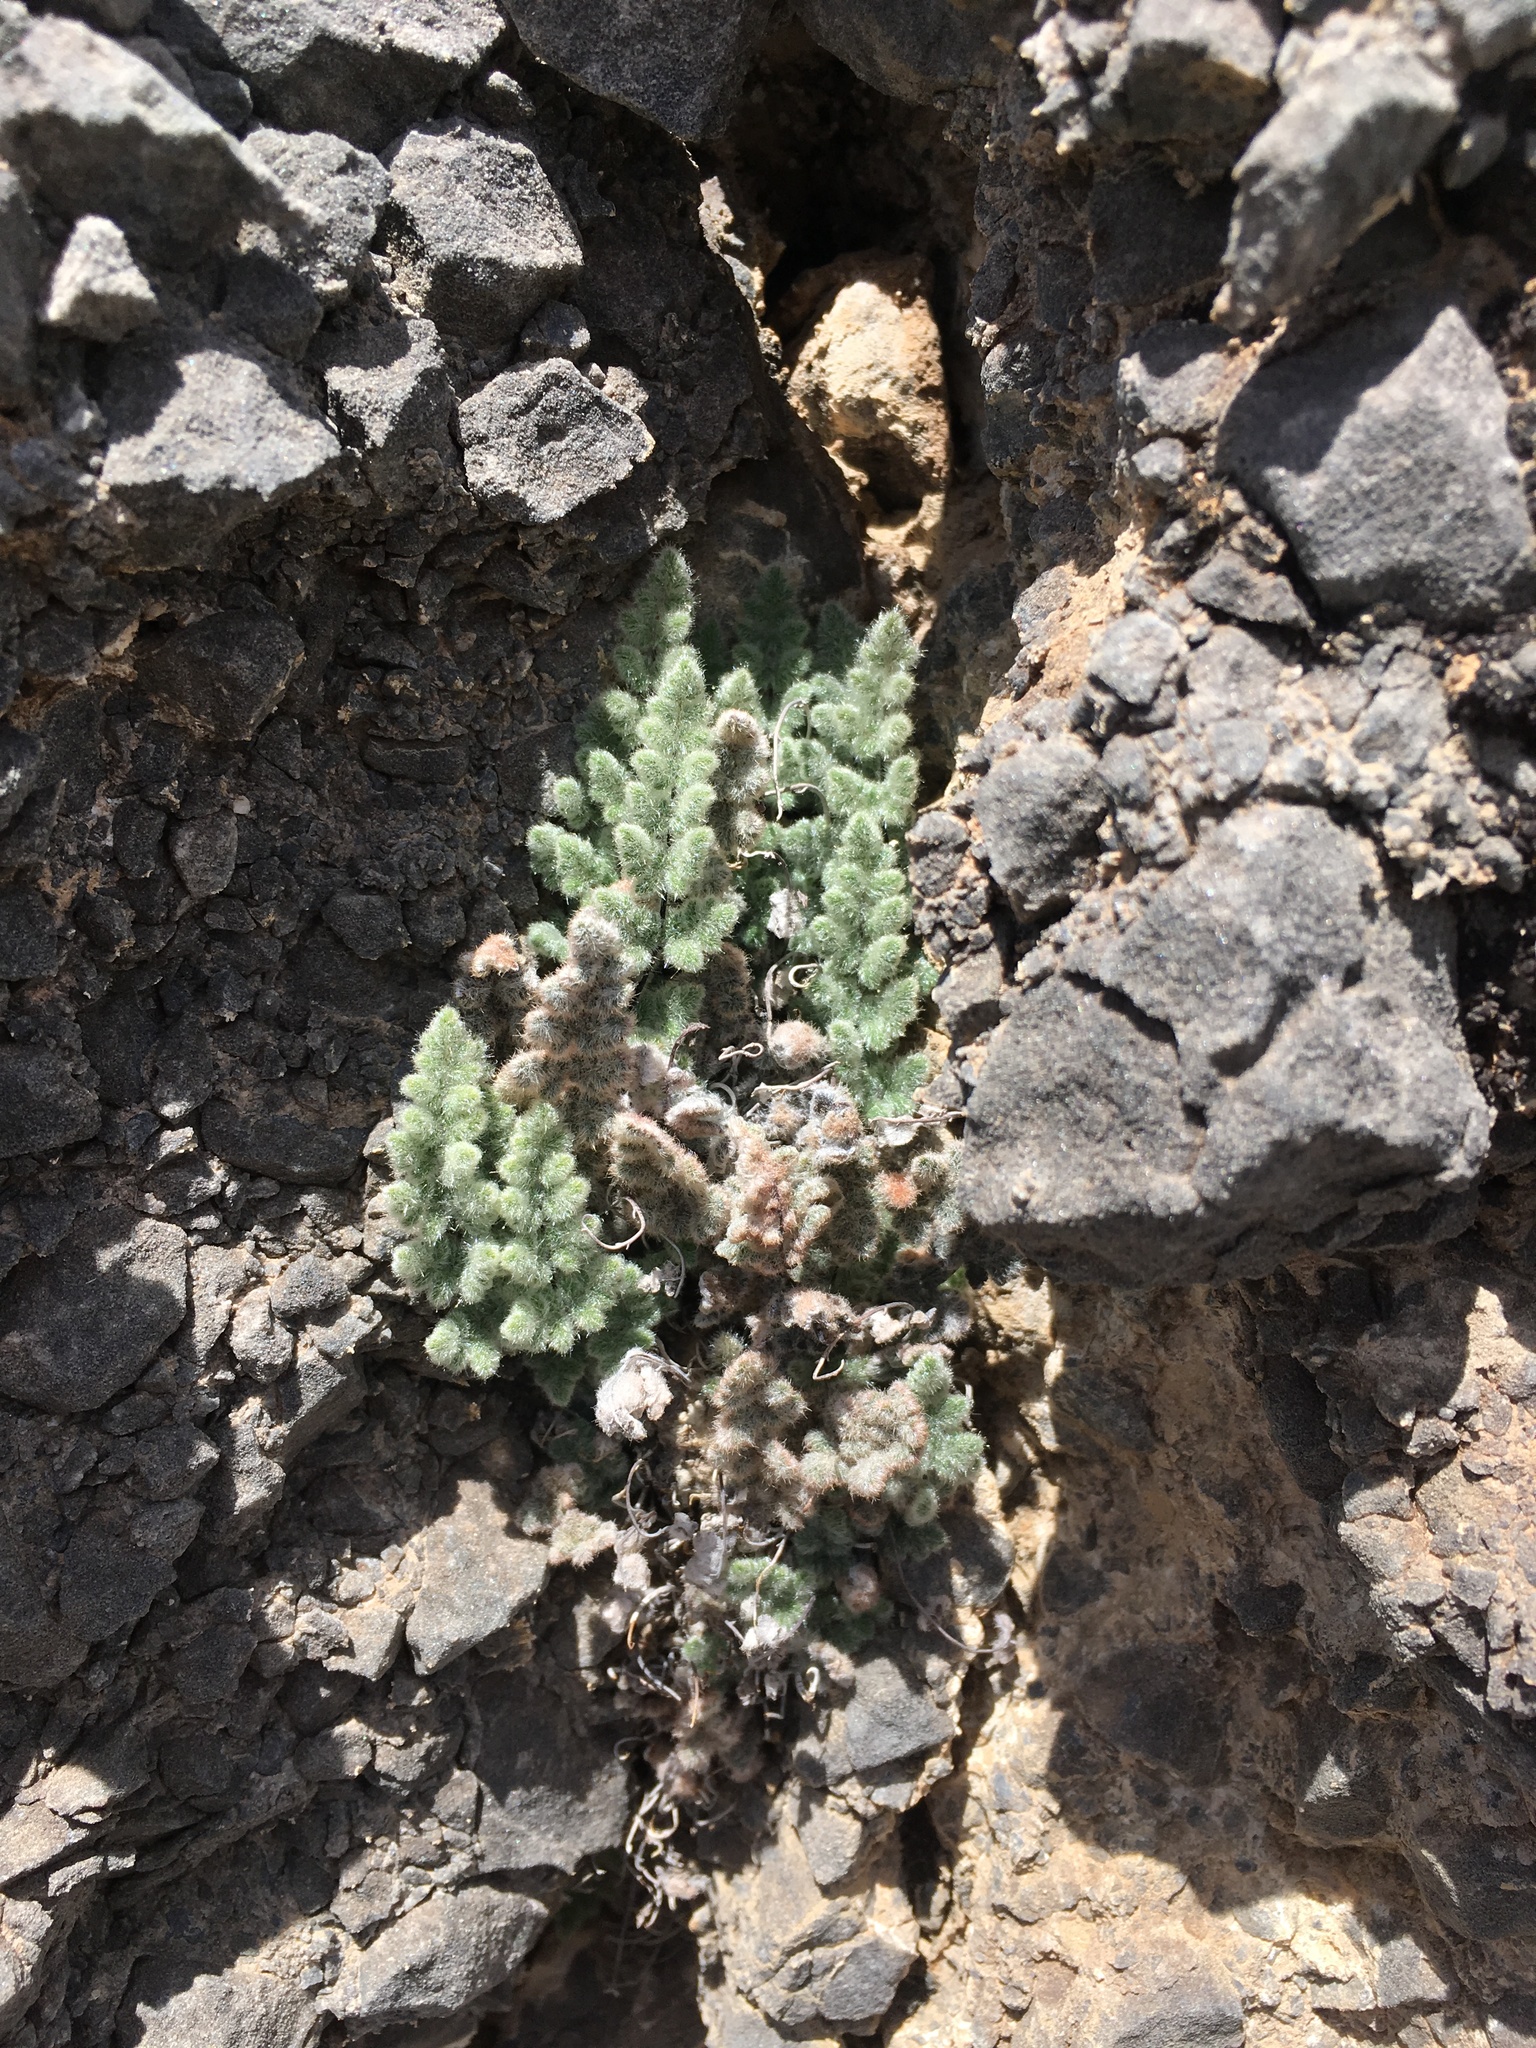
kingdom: Plantae
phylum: Tracheophyta
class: Polypodiopsida
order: Polypodiales
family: Pteridaceae
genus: Myriopteris
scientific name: Myriopteris parryi
